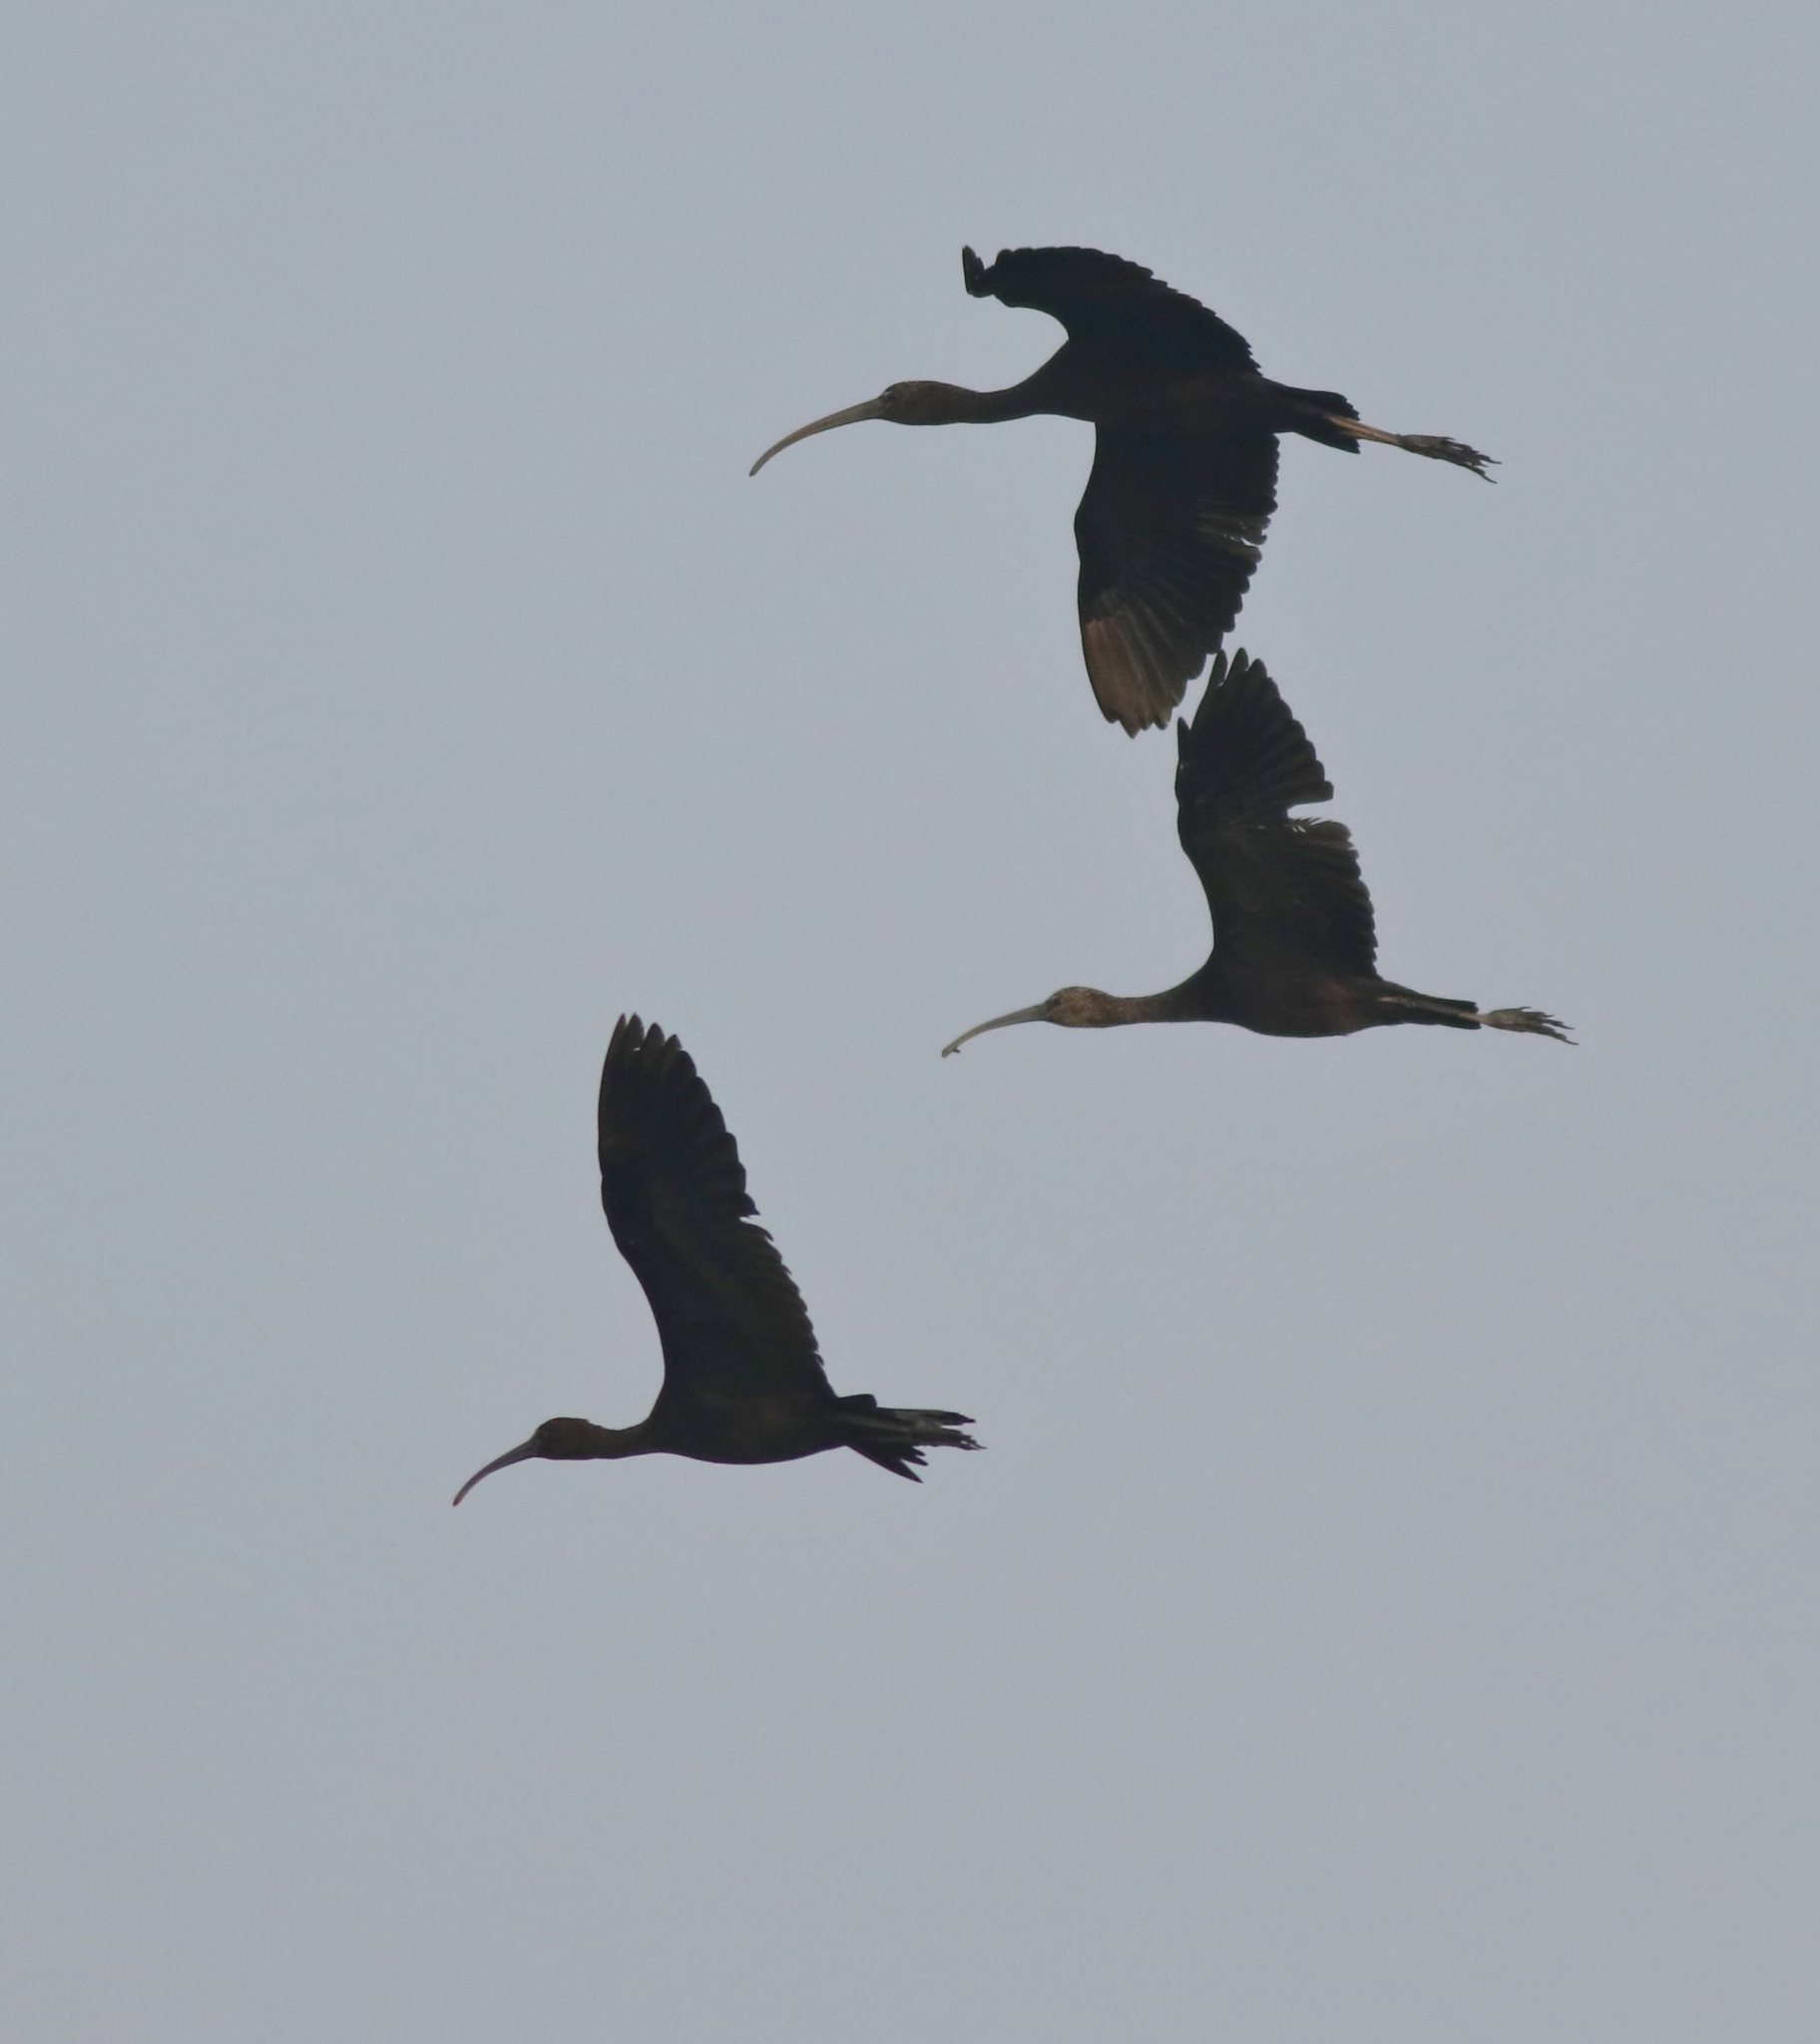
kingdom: Animalia
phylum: Chordata
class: Aves
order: Pelecaniformes
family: Threskiornithidae
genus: Plegadis
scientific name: Plegadis falcinellus
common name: Glossy ibis
